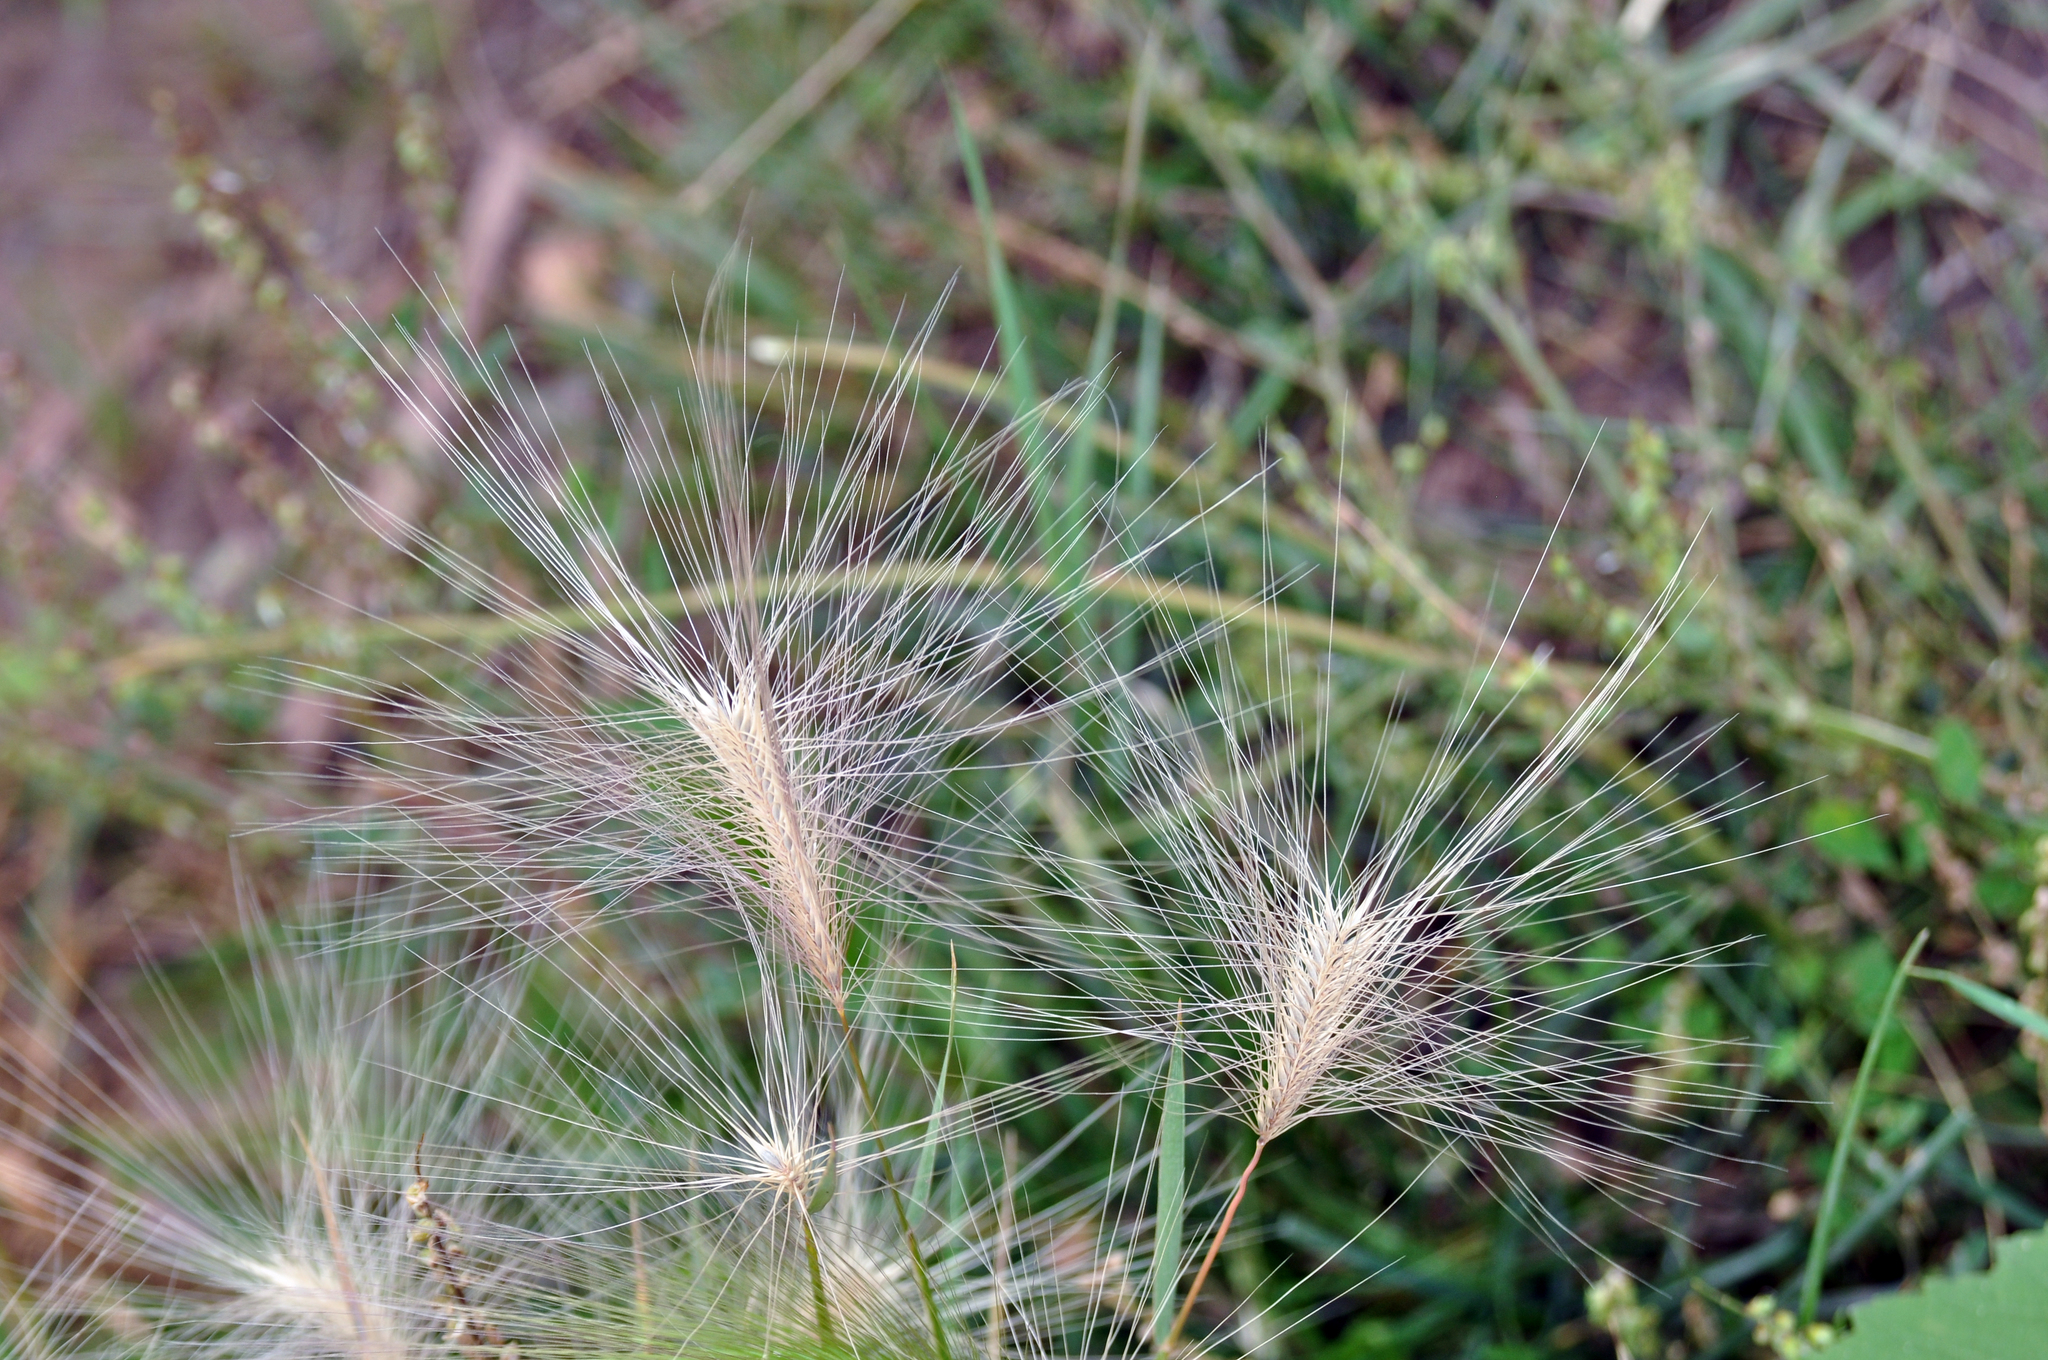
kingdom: Plantae
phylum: Tracheophyta
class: Liliopsida
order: Poales
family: Poaceae
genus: Hordeum
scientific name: Hordeum jubatum
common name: Foxtail barley
